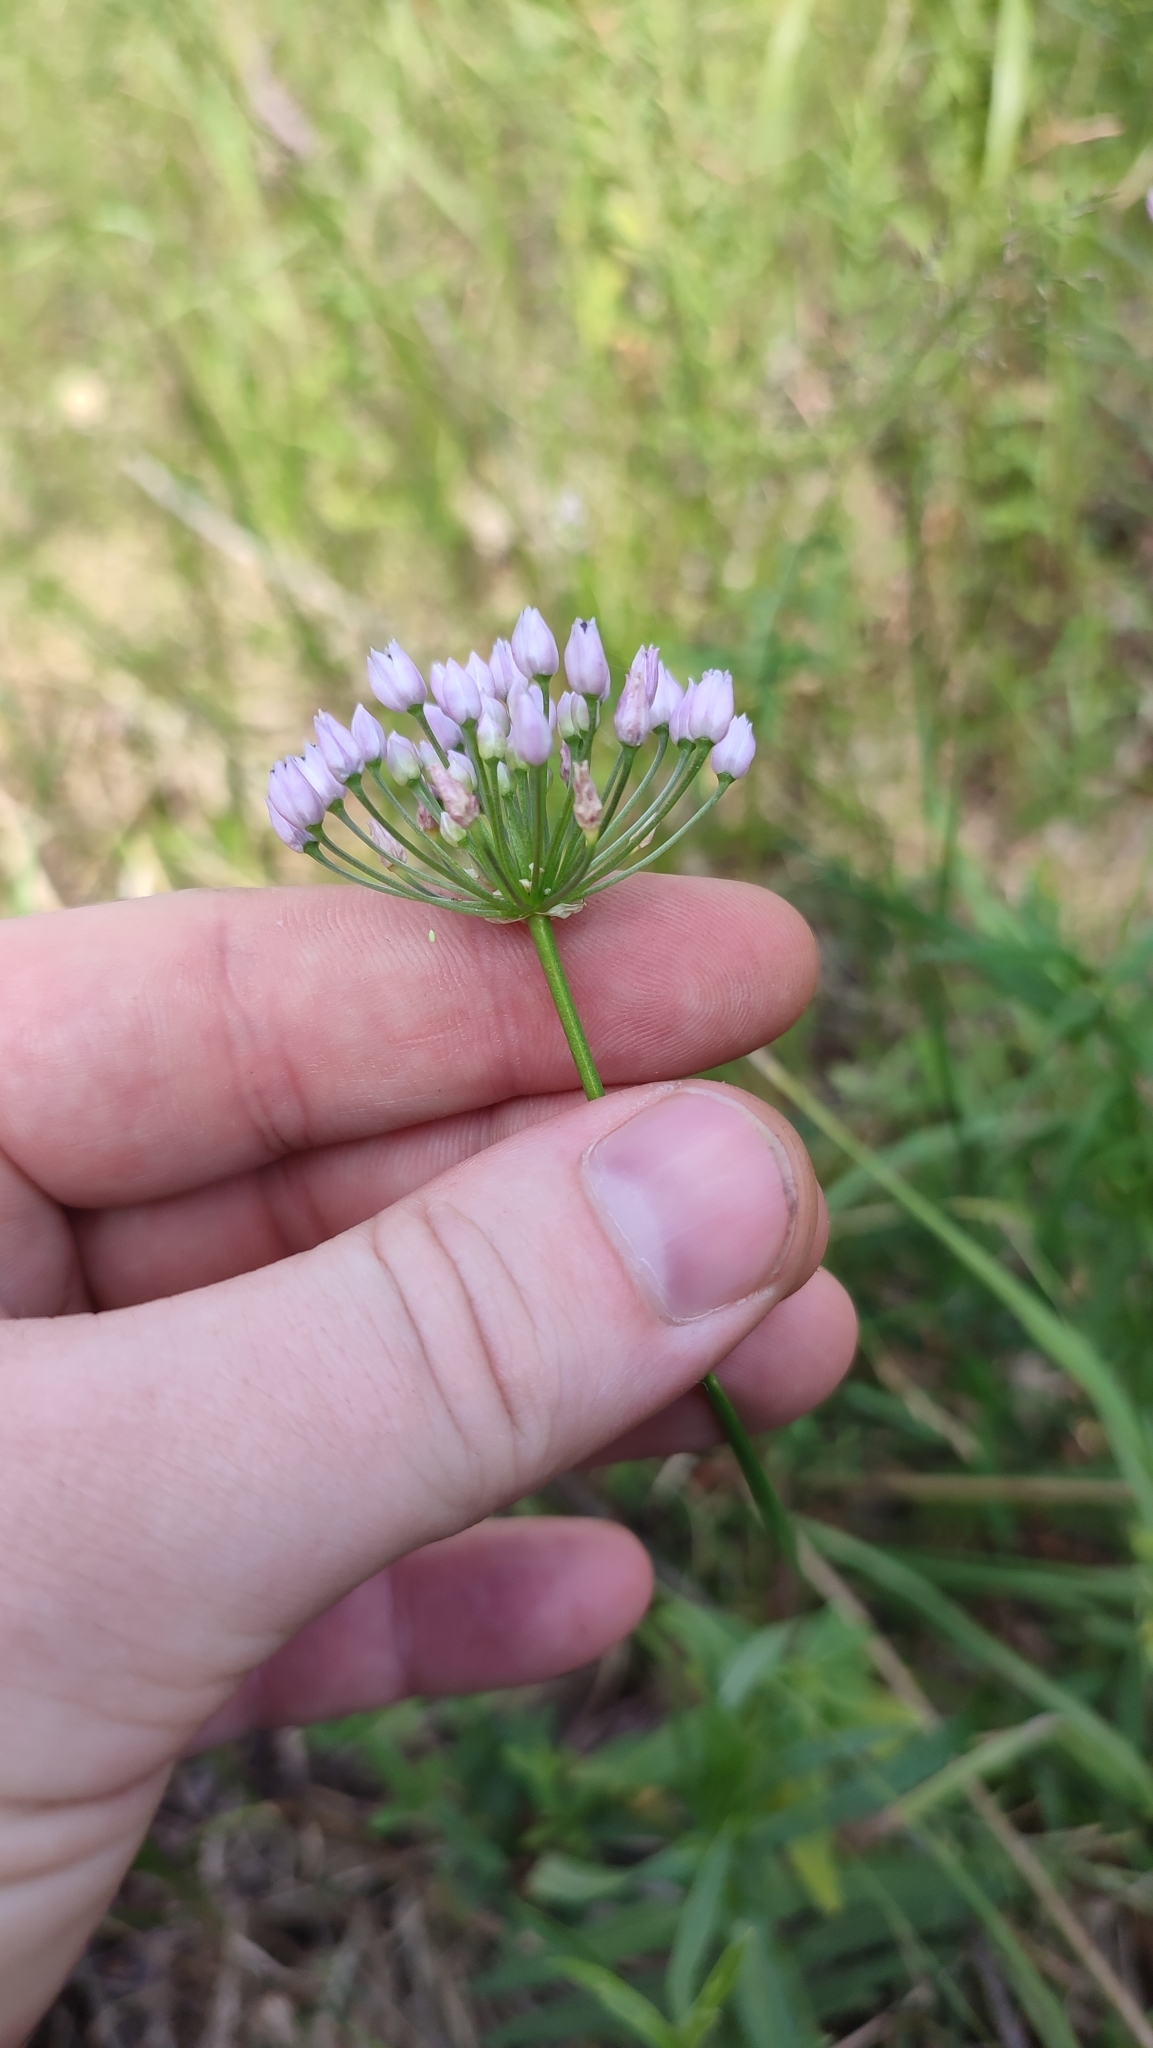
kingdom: Plantae
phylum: Tracheophyta
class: Liliopsida
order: Asparagales
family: Amaryllidaceae
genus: Allium
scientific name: Allium angulosum
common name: Mouse garlic
